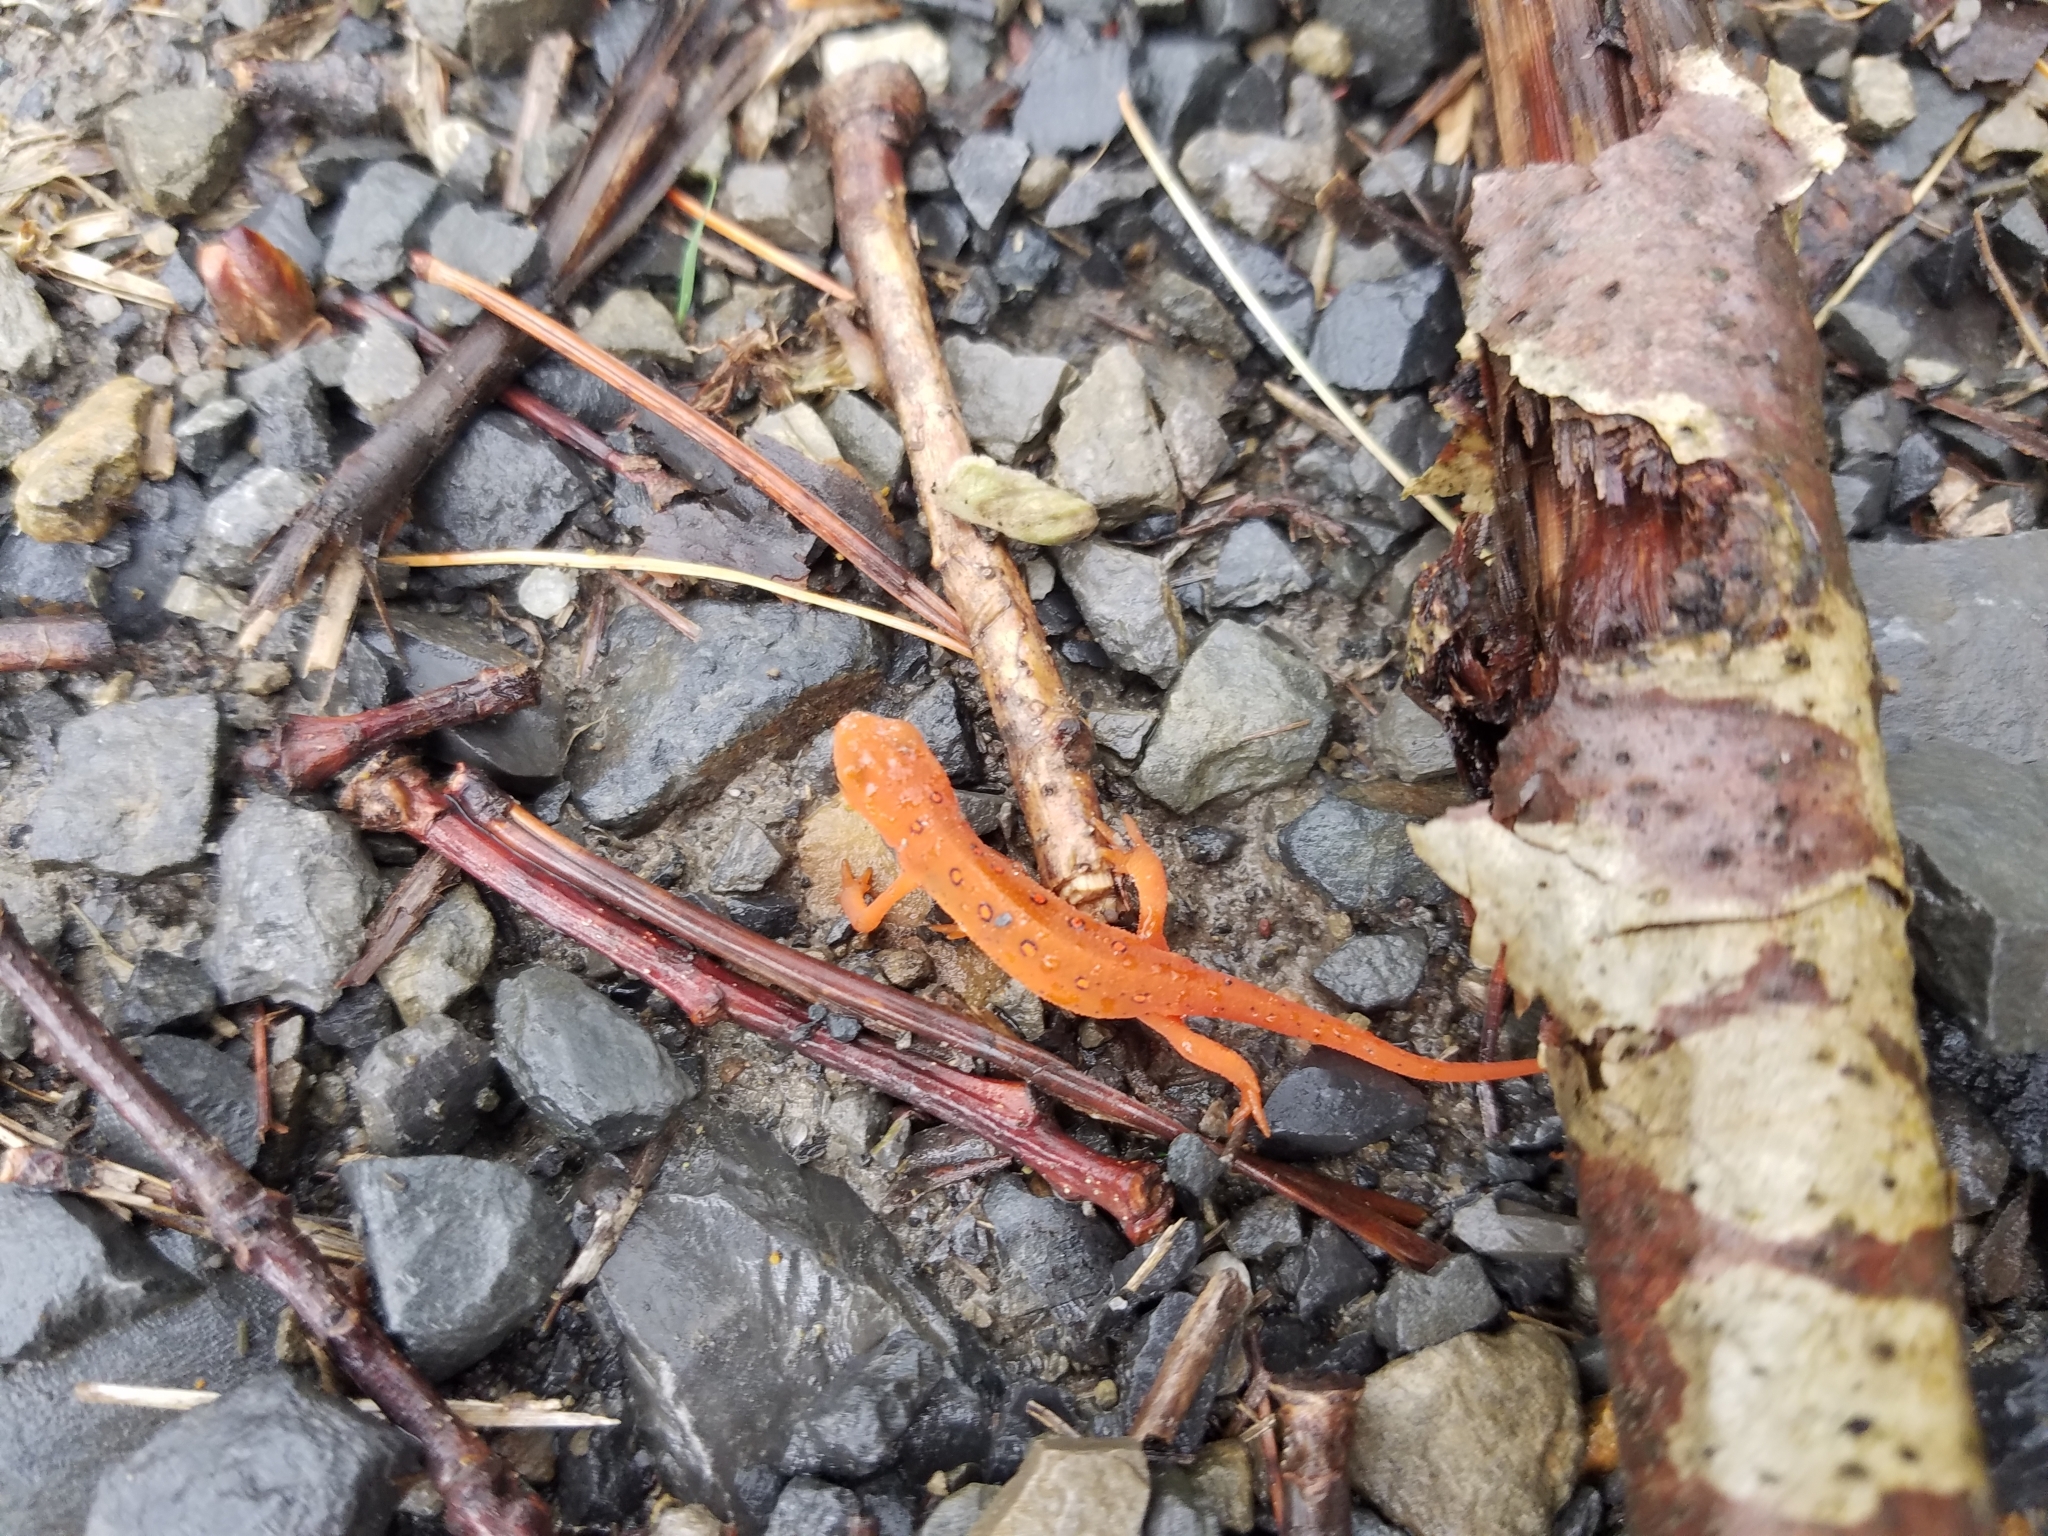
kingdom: Animalia
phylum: Chordata
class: Amphibia
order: Caudata
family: Salamandridae
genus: Notophthalmus
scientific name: Notophthalmus viridescens
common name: Eastern newt
